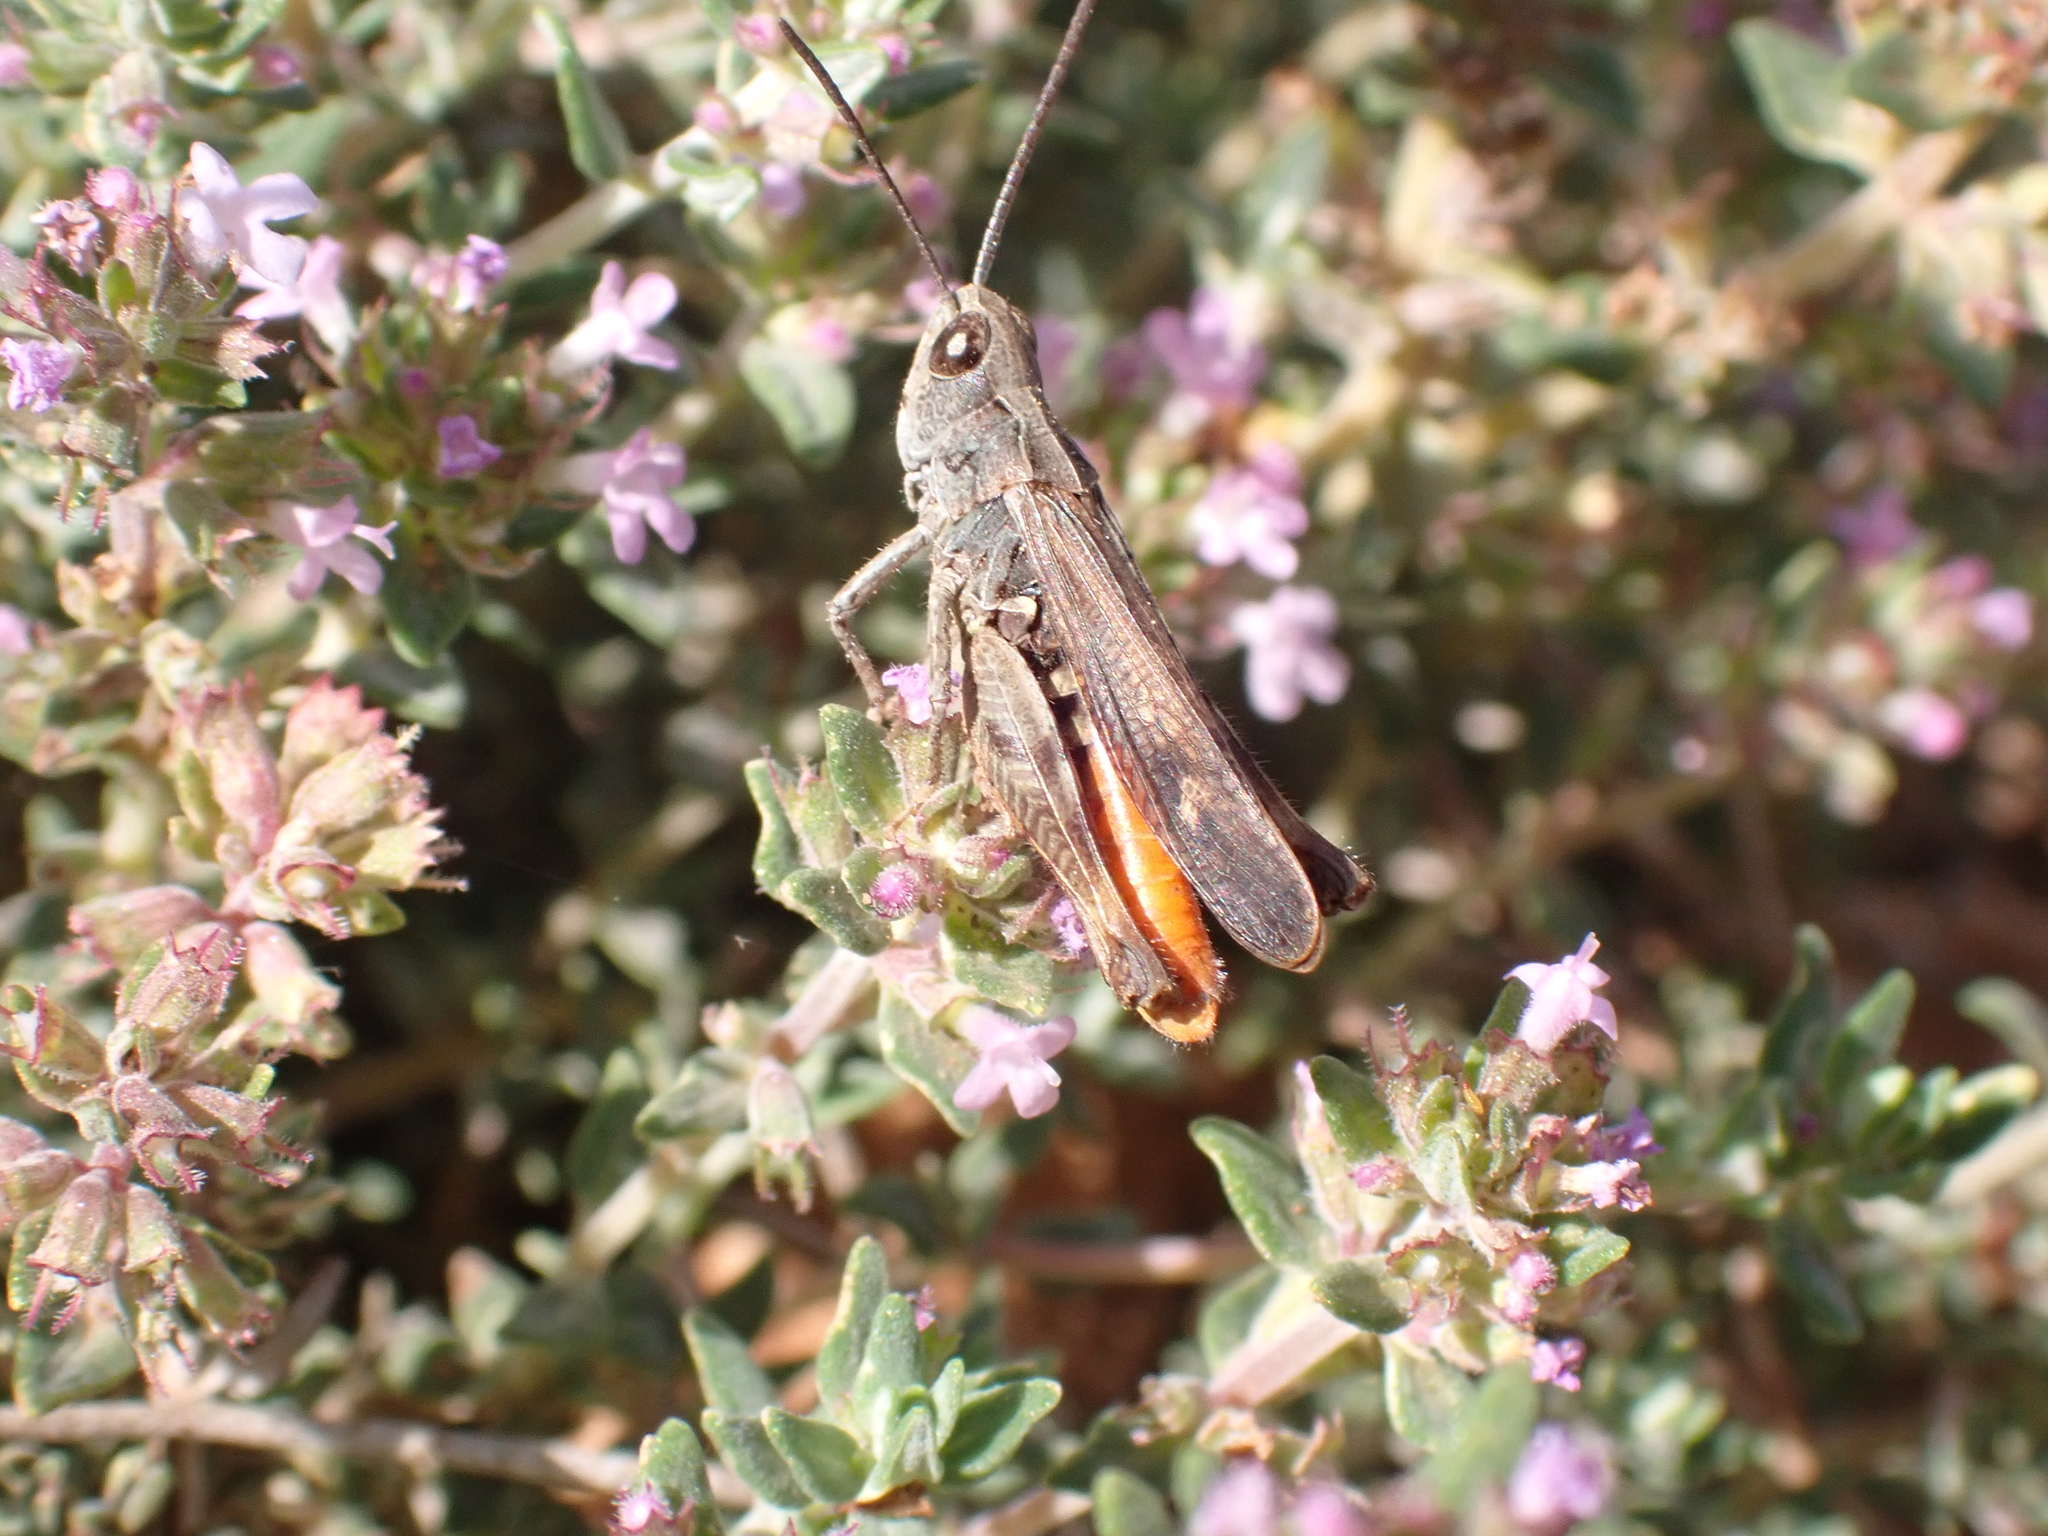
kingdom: Animalia
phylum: Arthropoda
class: Insecta
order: Orthoptera
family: Acrididae
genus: Omocestus
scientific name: Omocestus raymondi
